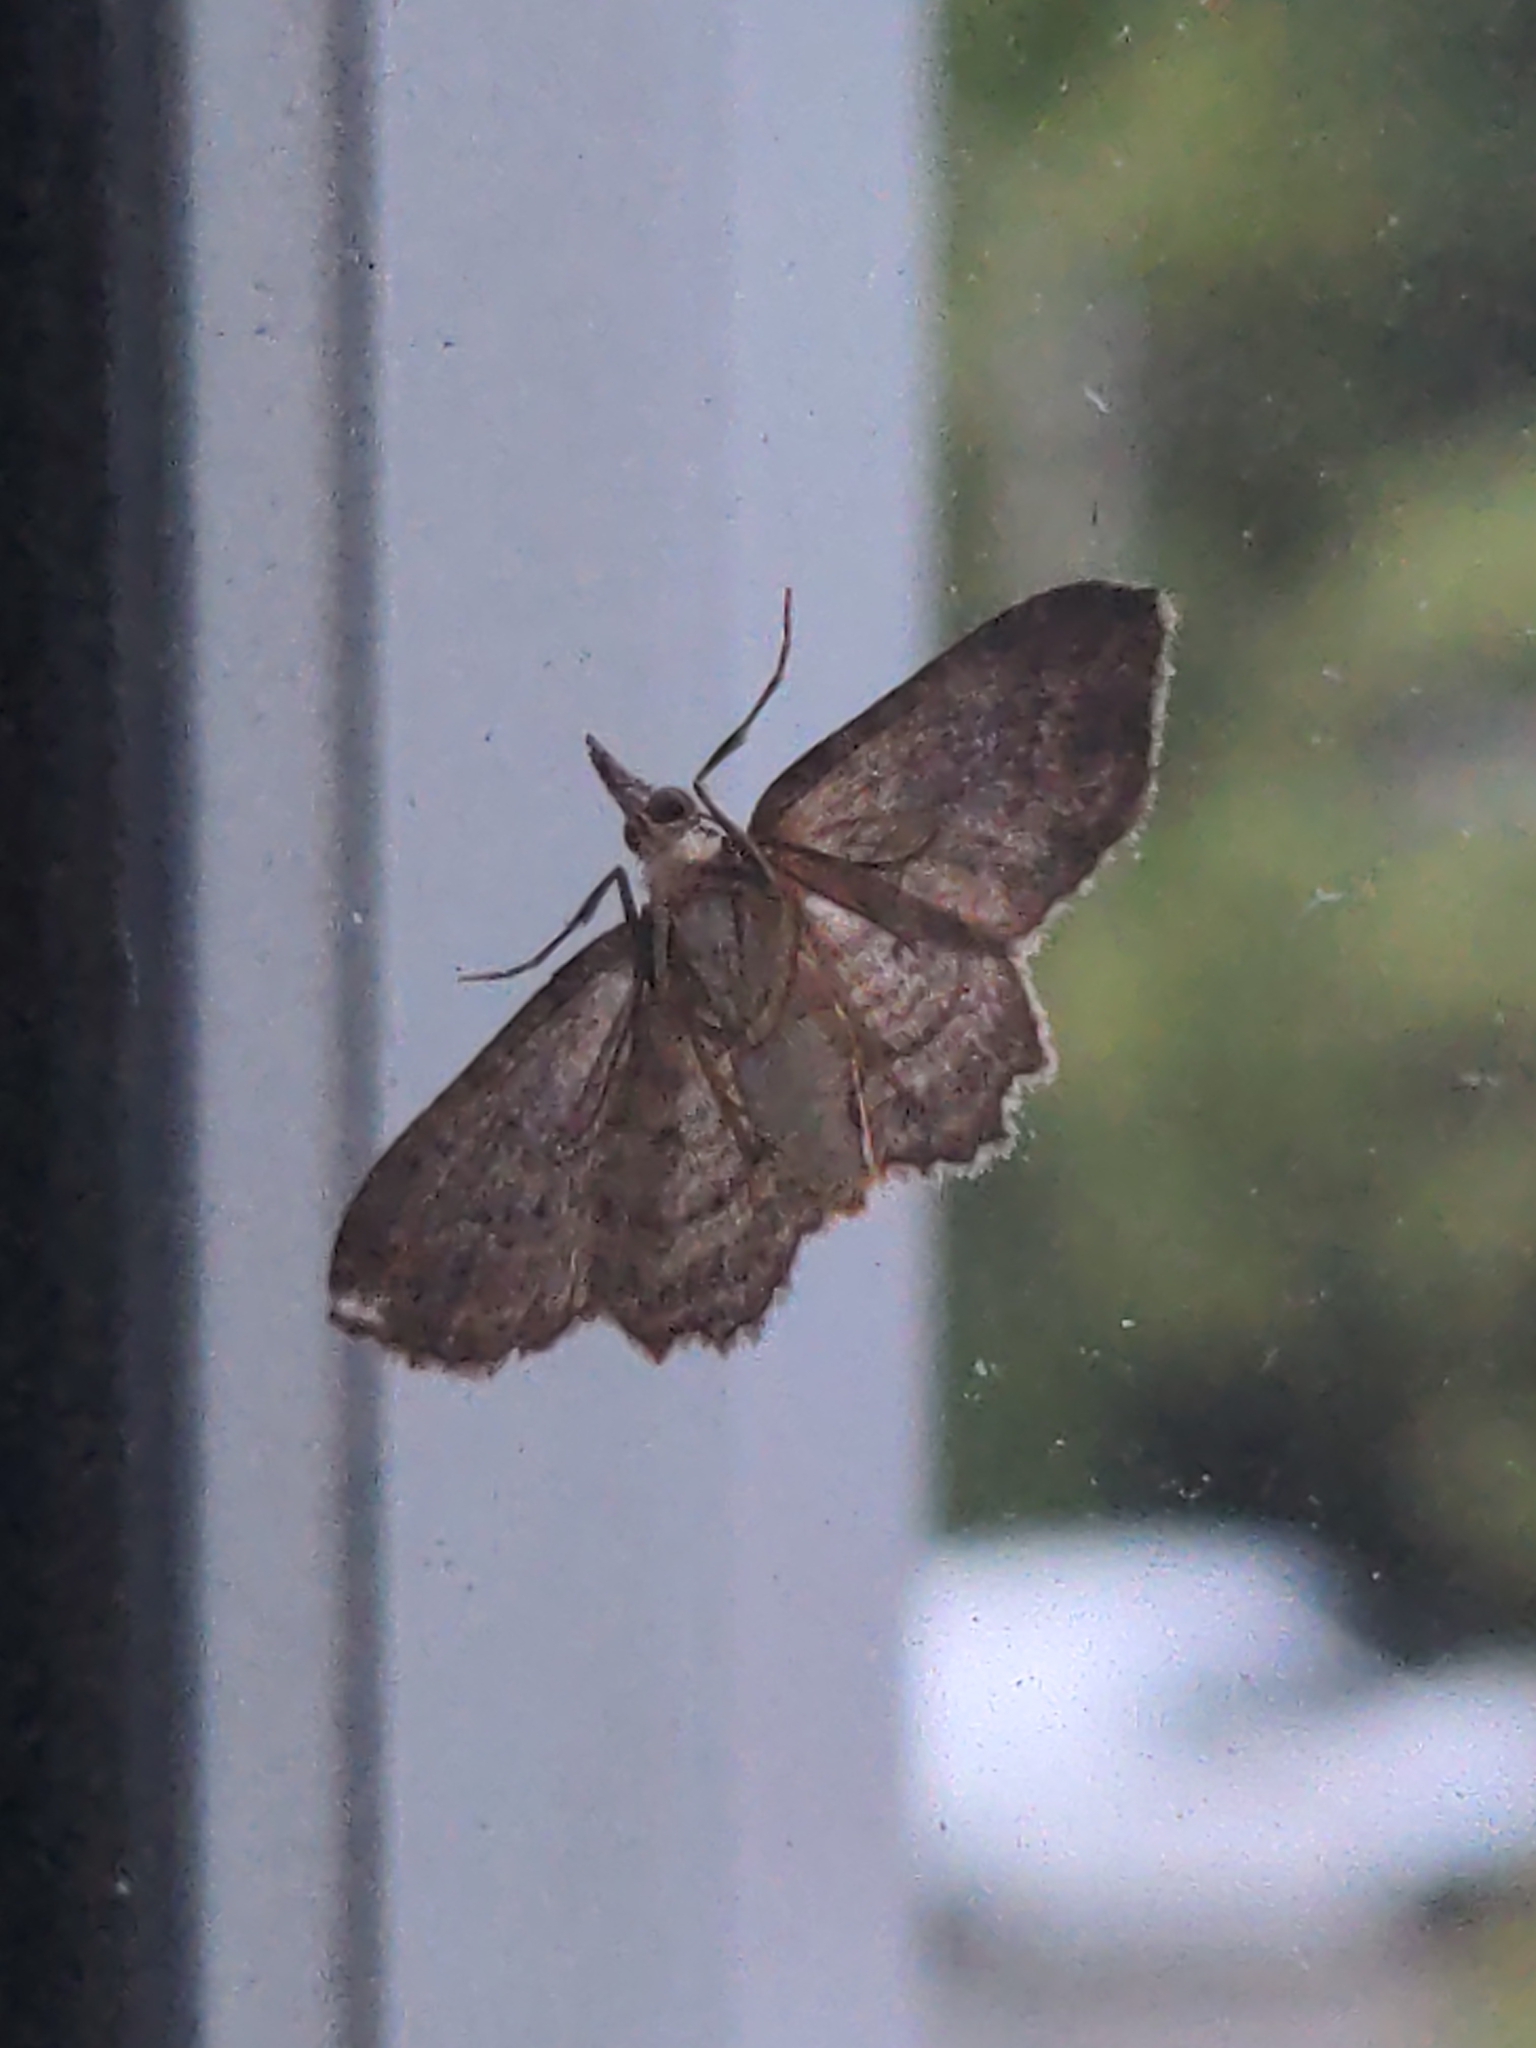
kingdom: Animalia
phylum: Arthropoda
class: Insecta
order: Lepidoptera
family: Geometridae
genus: Chloroclystis
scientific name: Chloroclystis filata
